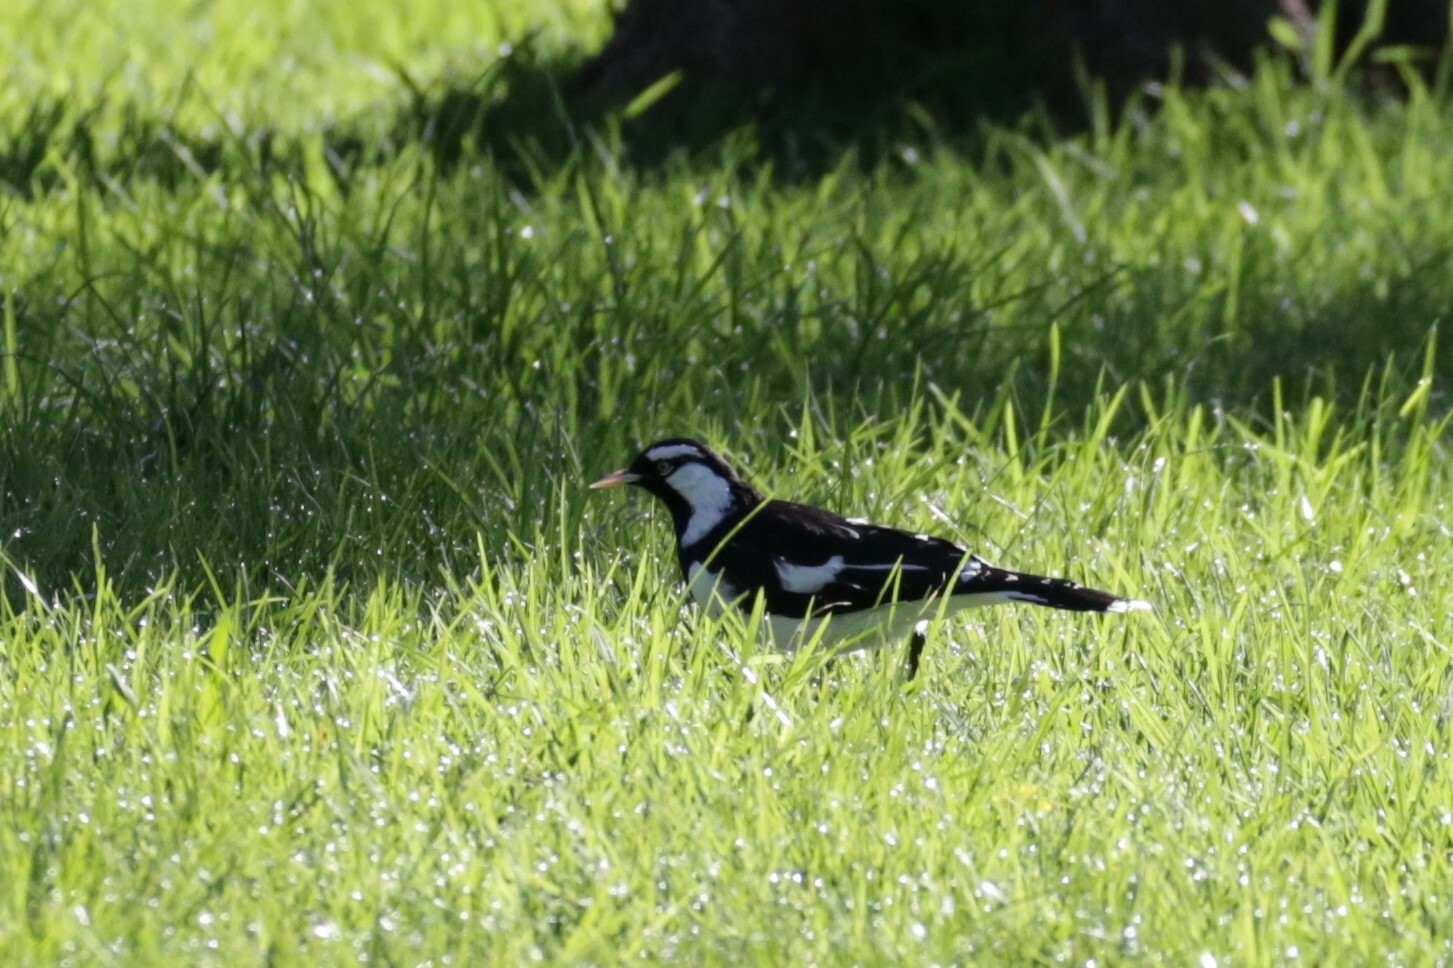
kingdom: Animalia
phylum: Chordata
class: Aves
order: Passeriformes
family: Monarchidae
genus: Grallina
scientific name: Grallina cyanoleuca
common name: Magpie-lark
